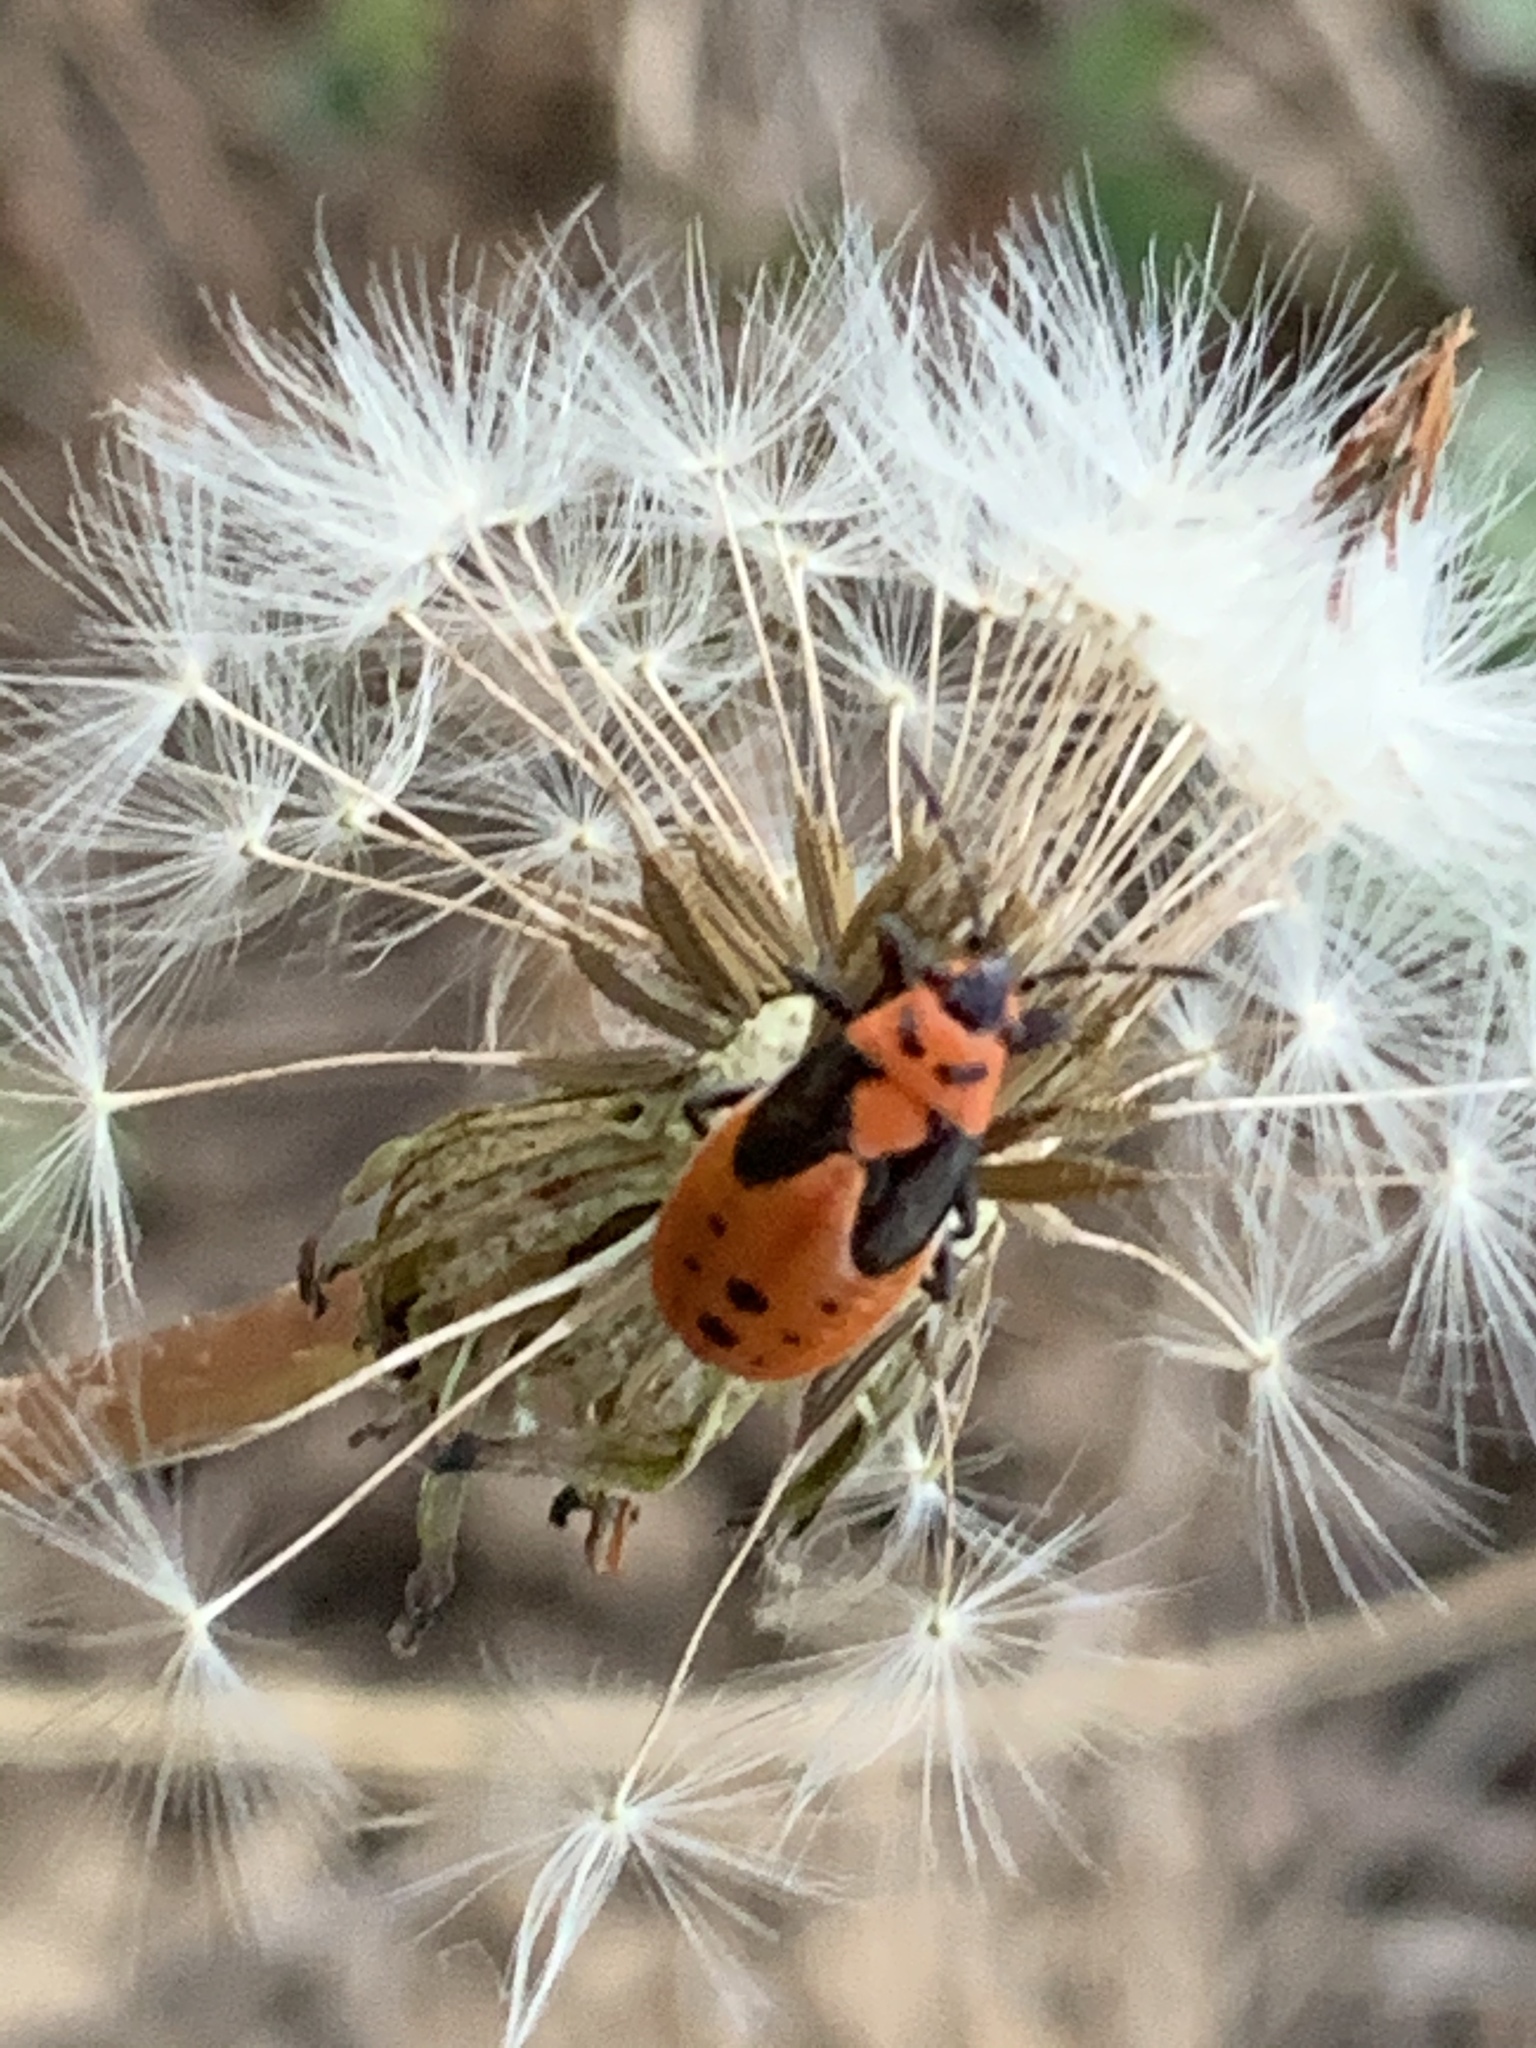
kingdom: Animalia
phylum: Arthropoda
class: Insecta
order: Hemiptera
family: Lygaeidae
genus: Lygaeus
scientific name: Lygaeus kalmii
